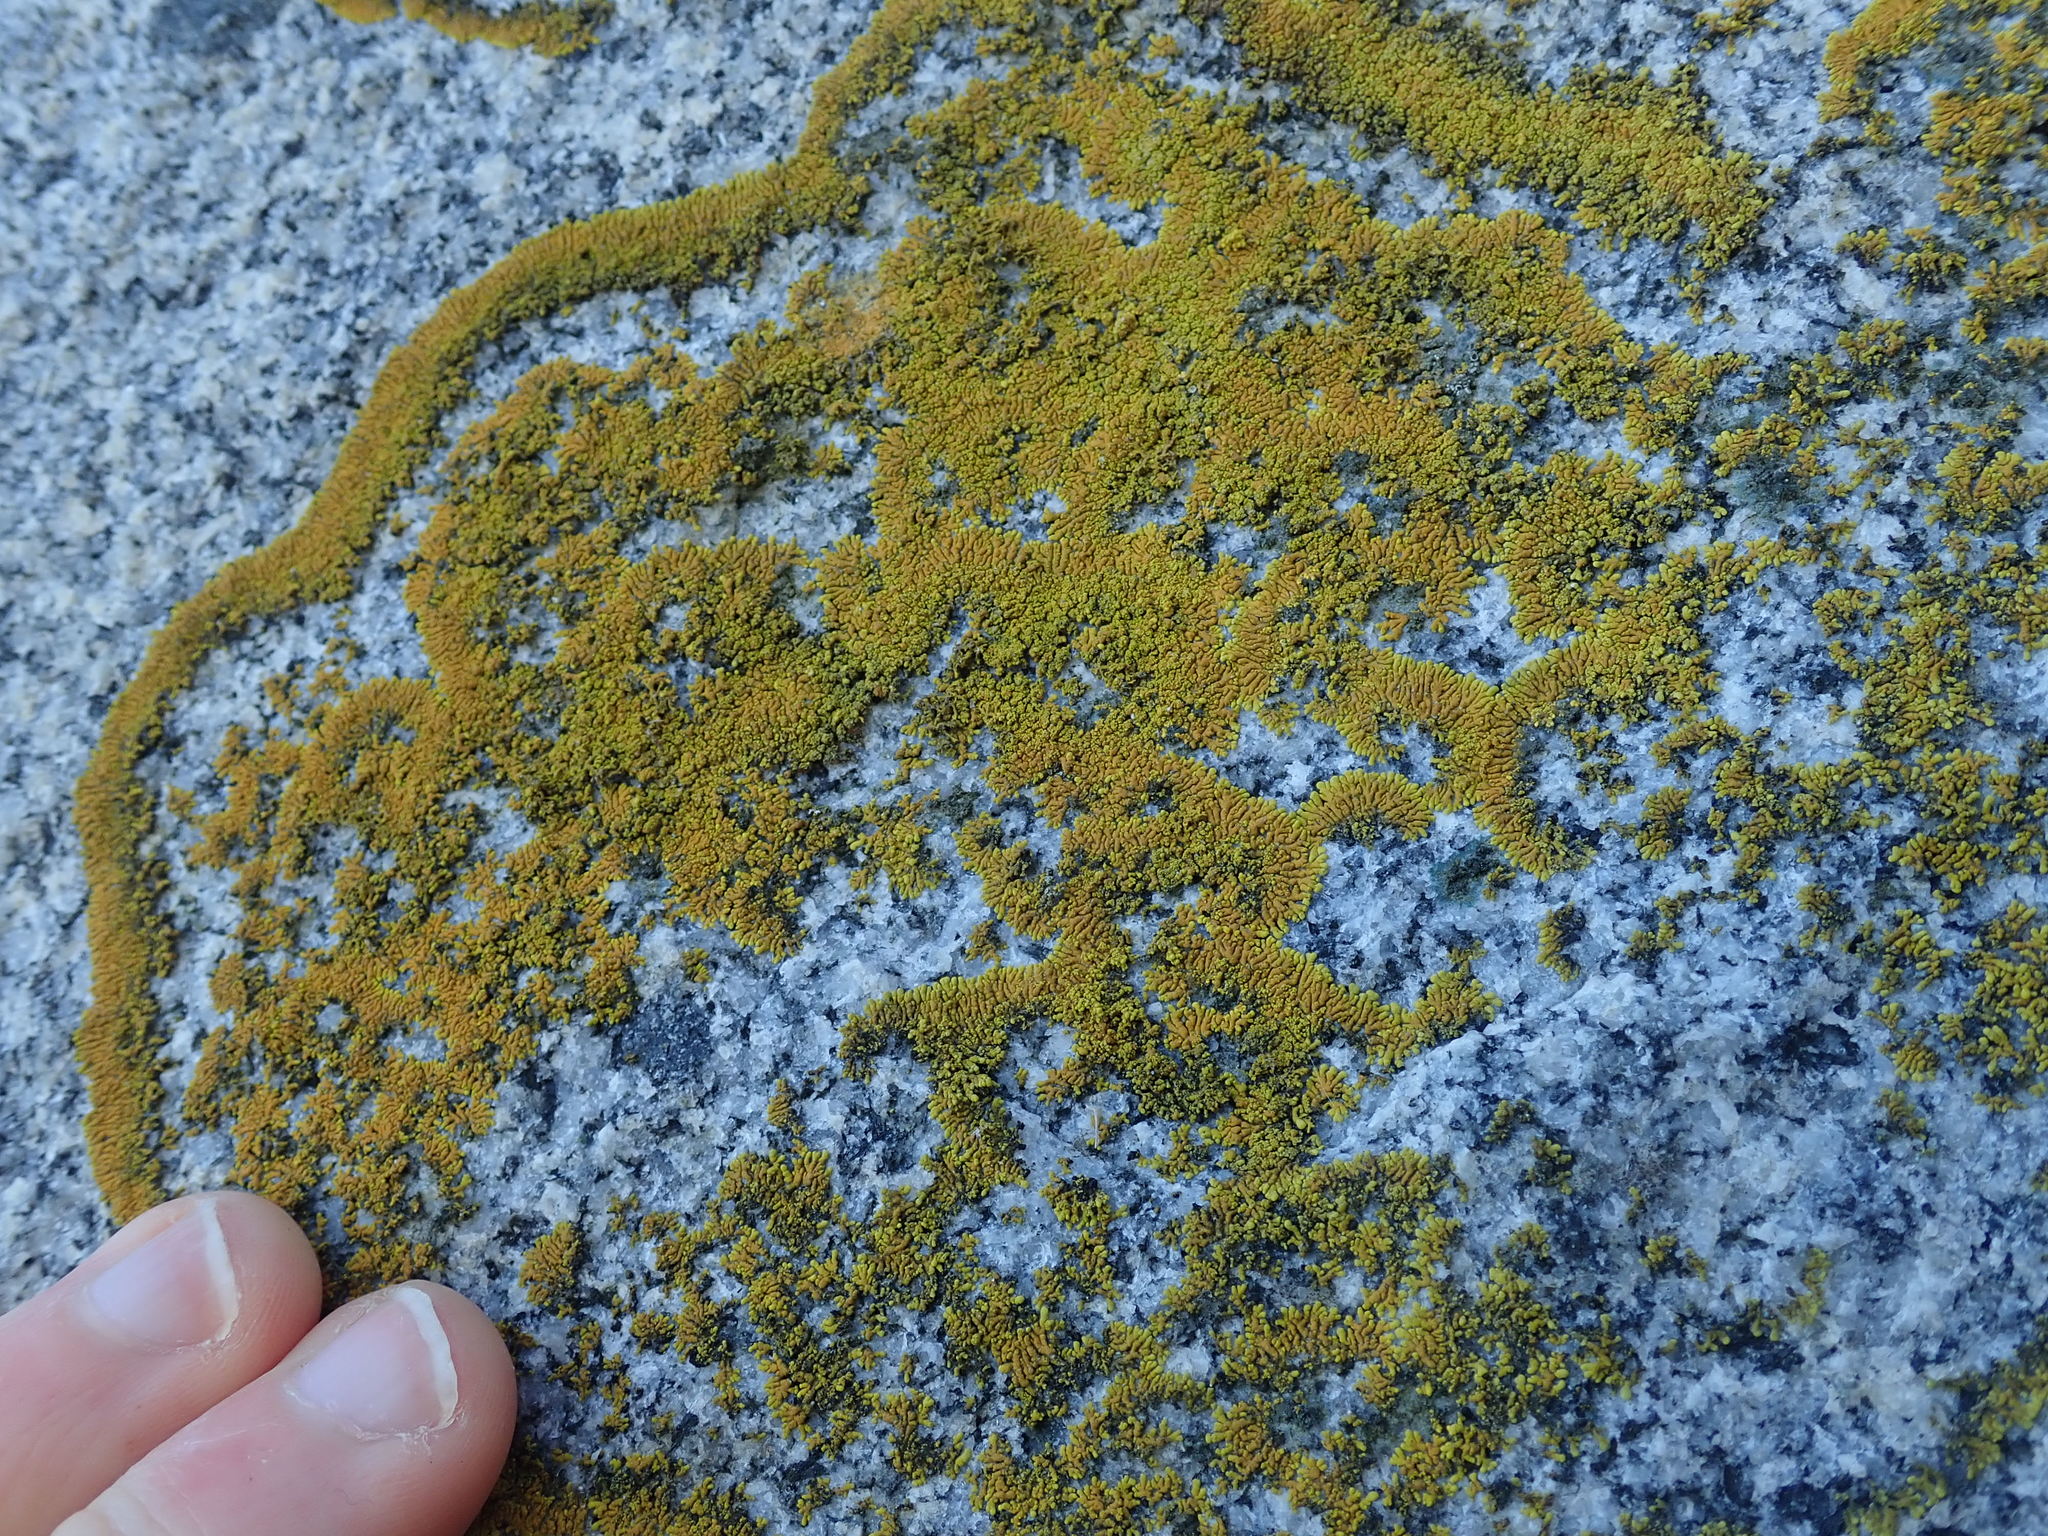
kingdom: Fungi
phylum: Ascomycota
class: Lecanoromycetes
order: Teloschistales
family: Teloschistaceae
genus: Verrucoplaca
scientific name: Verrucoplaca verruculifera
